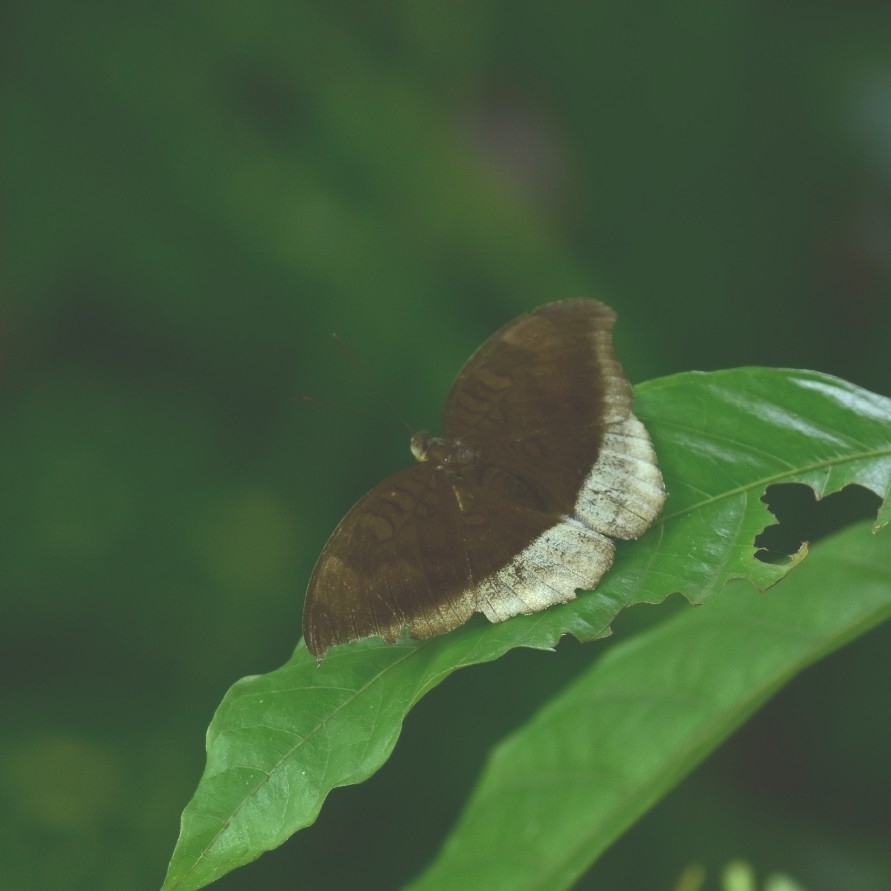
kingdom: Animalia
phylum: Arthropoda
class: Insecta
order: Lepidoptera
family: Nymphalidae
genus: Tanaecia
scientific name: Tanaecia lepidea
